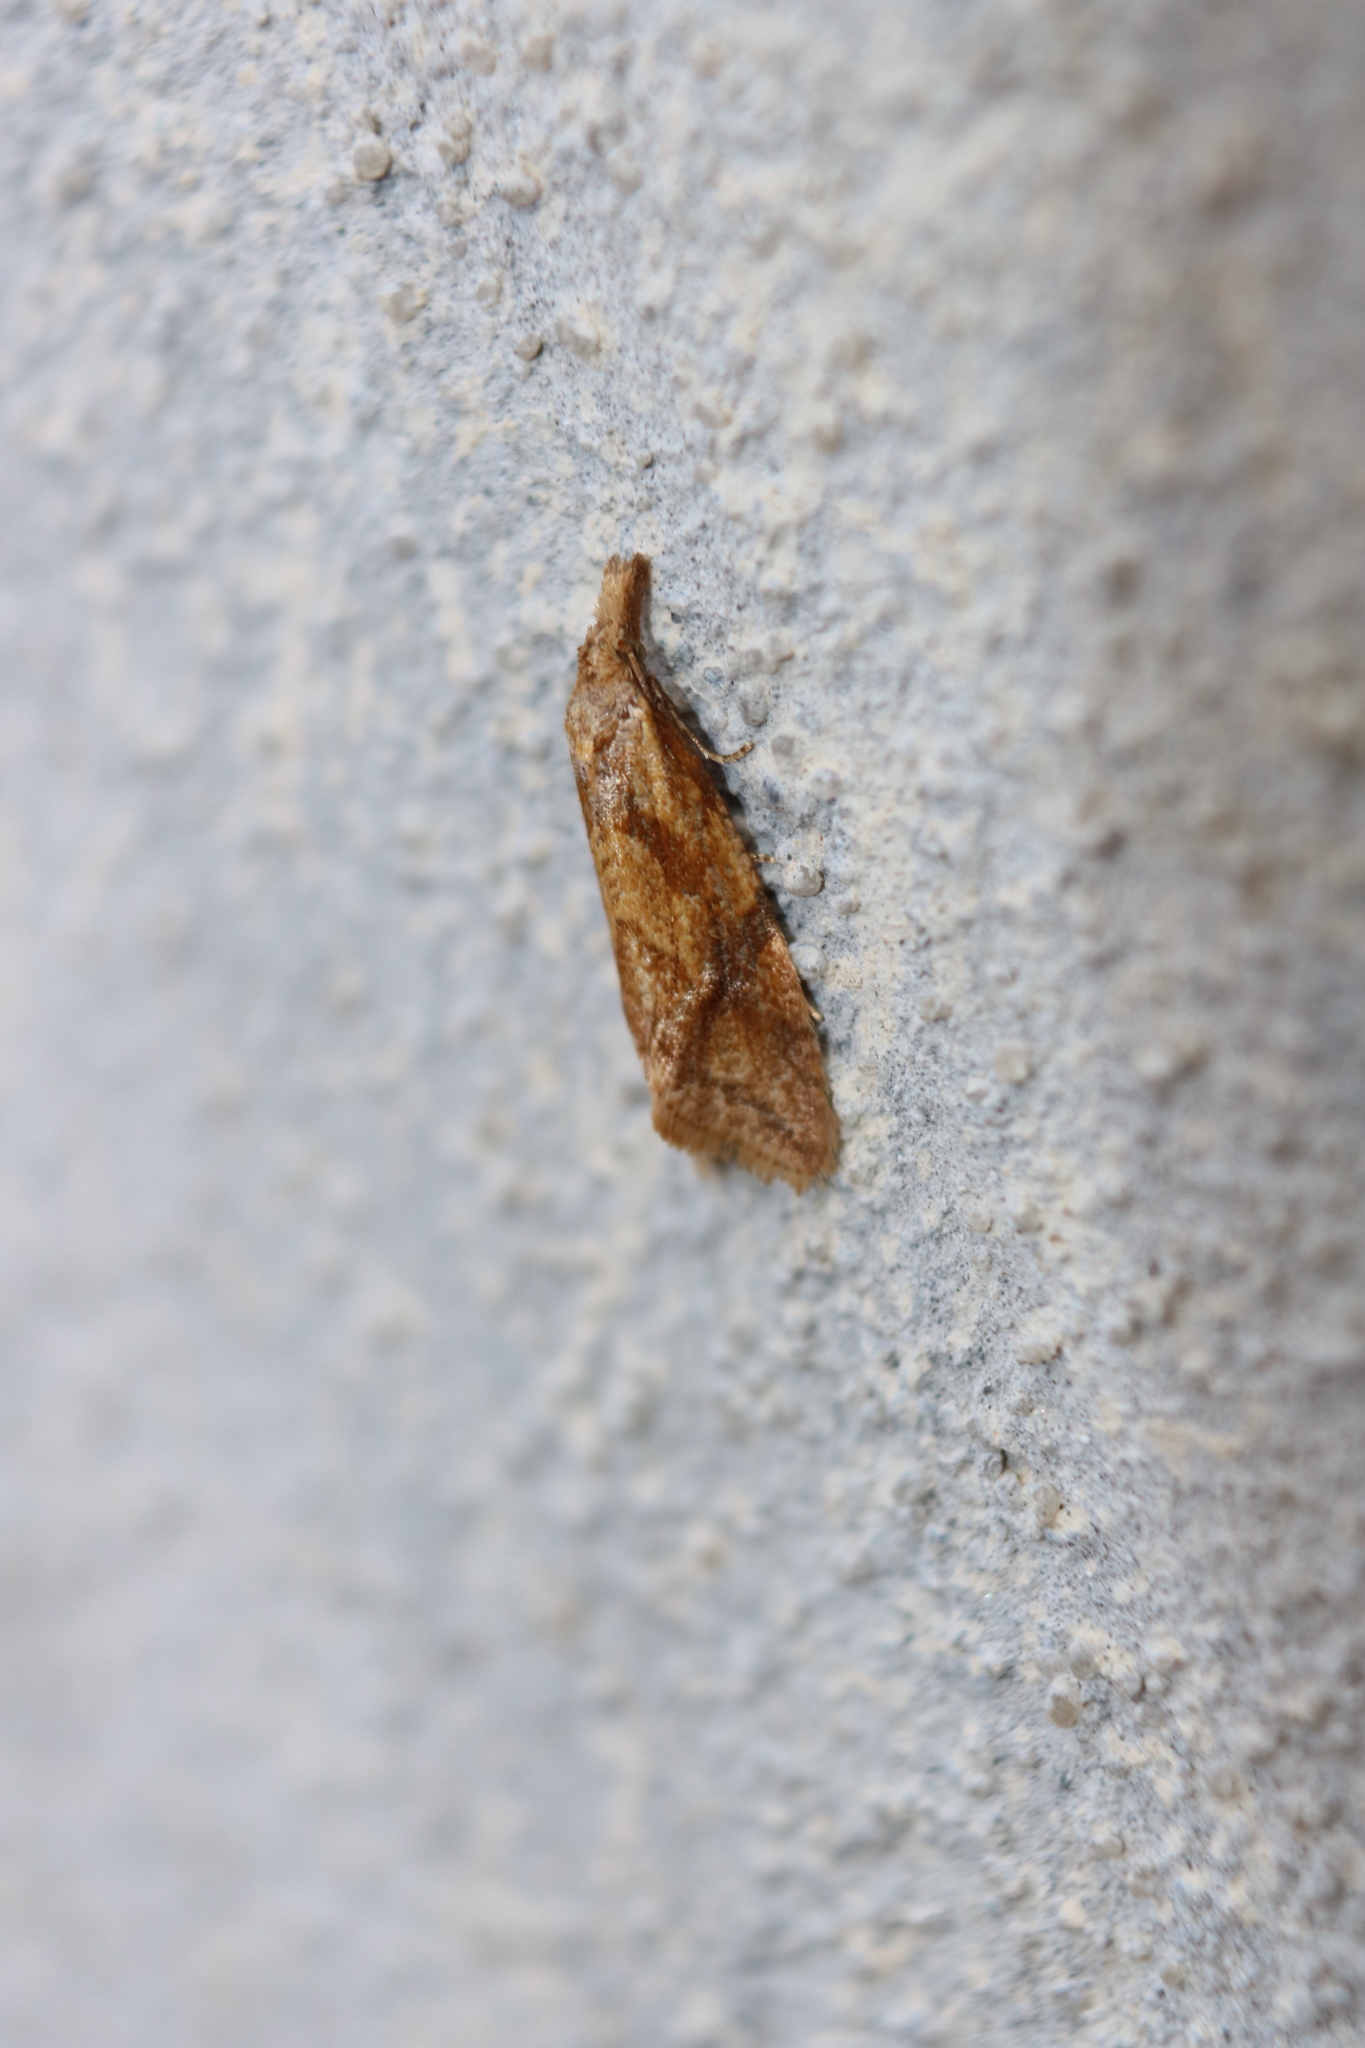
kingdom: Animalia
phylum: Arthropoda
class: Insecta
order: Lepidoptera
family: Tortricidae
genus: Aethes
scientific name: Aethes biscana
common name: Reddish aethes
